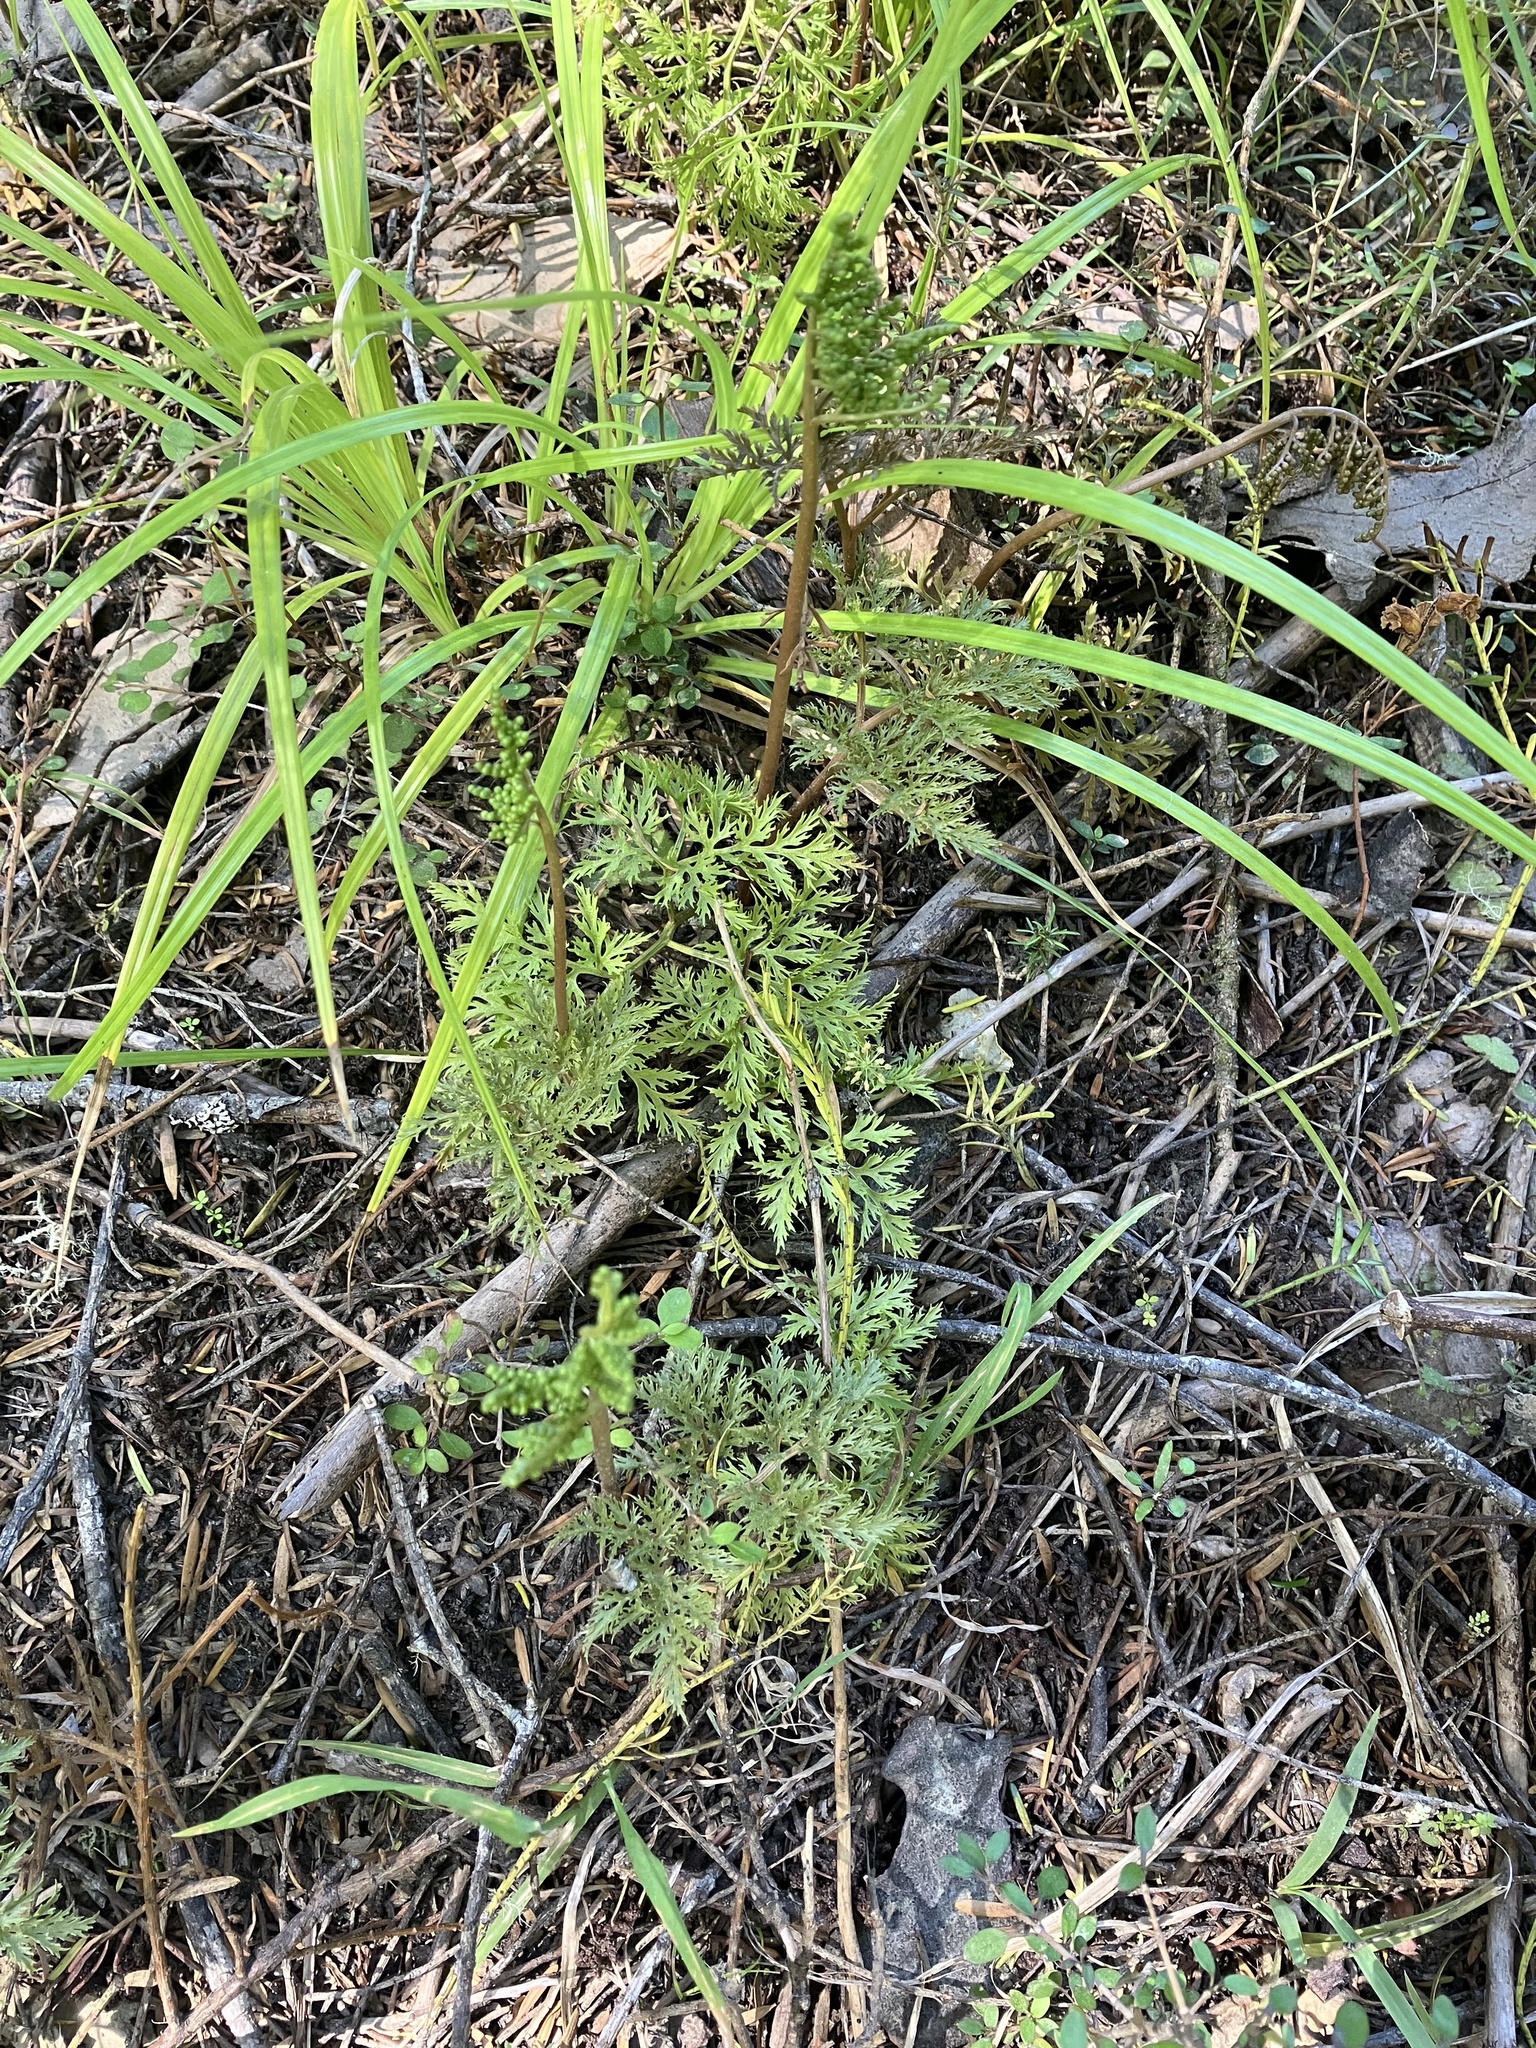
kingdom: Plantae
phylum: Tracheophyta
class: Polypodiopsida
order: Ophioglossales
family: Ophioglossaceae
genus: Sceptridium
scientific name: Sceptridium biforme
